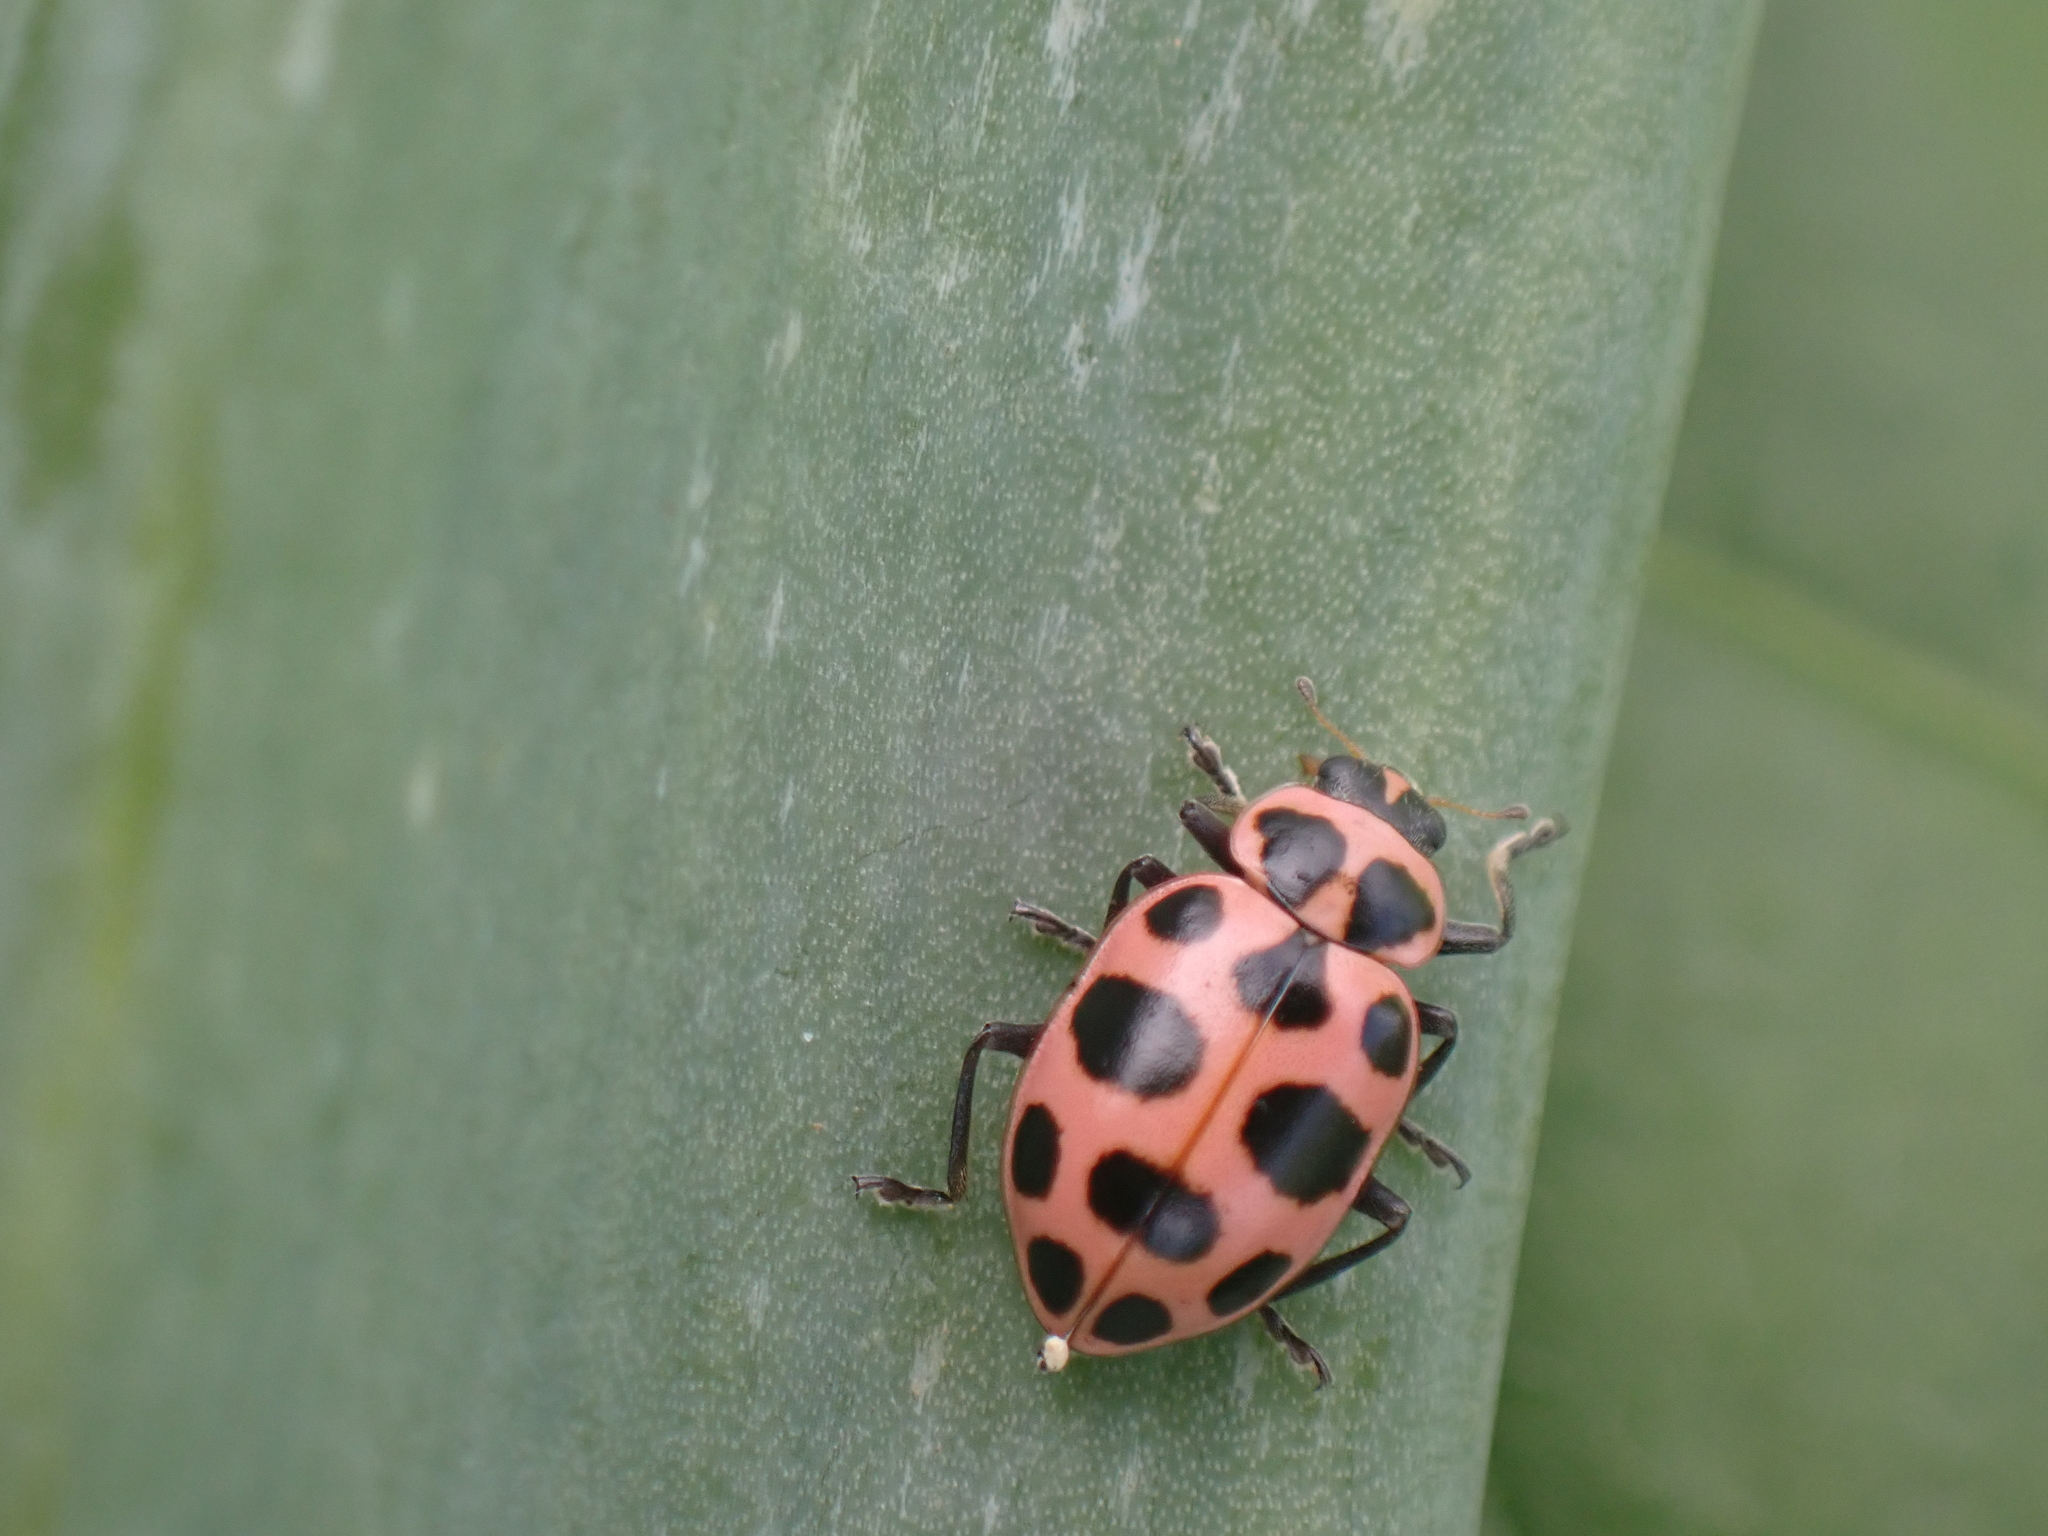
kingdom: Animalia
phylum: Arthropoda
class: Insecta
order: Coleoptera
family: Coccinellidae
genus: Coleomegilla
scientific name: Coleomegilla maculata
